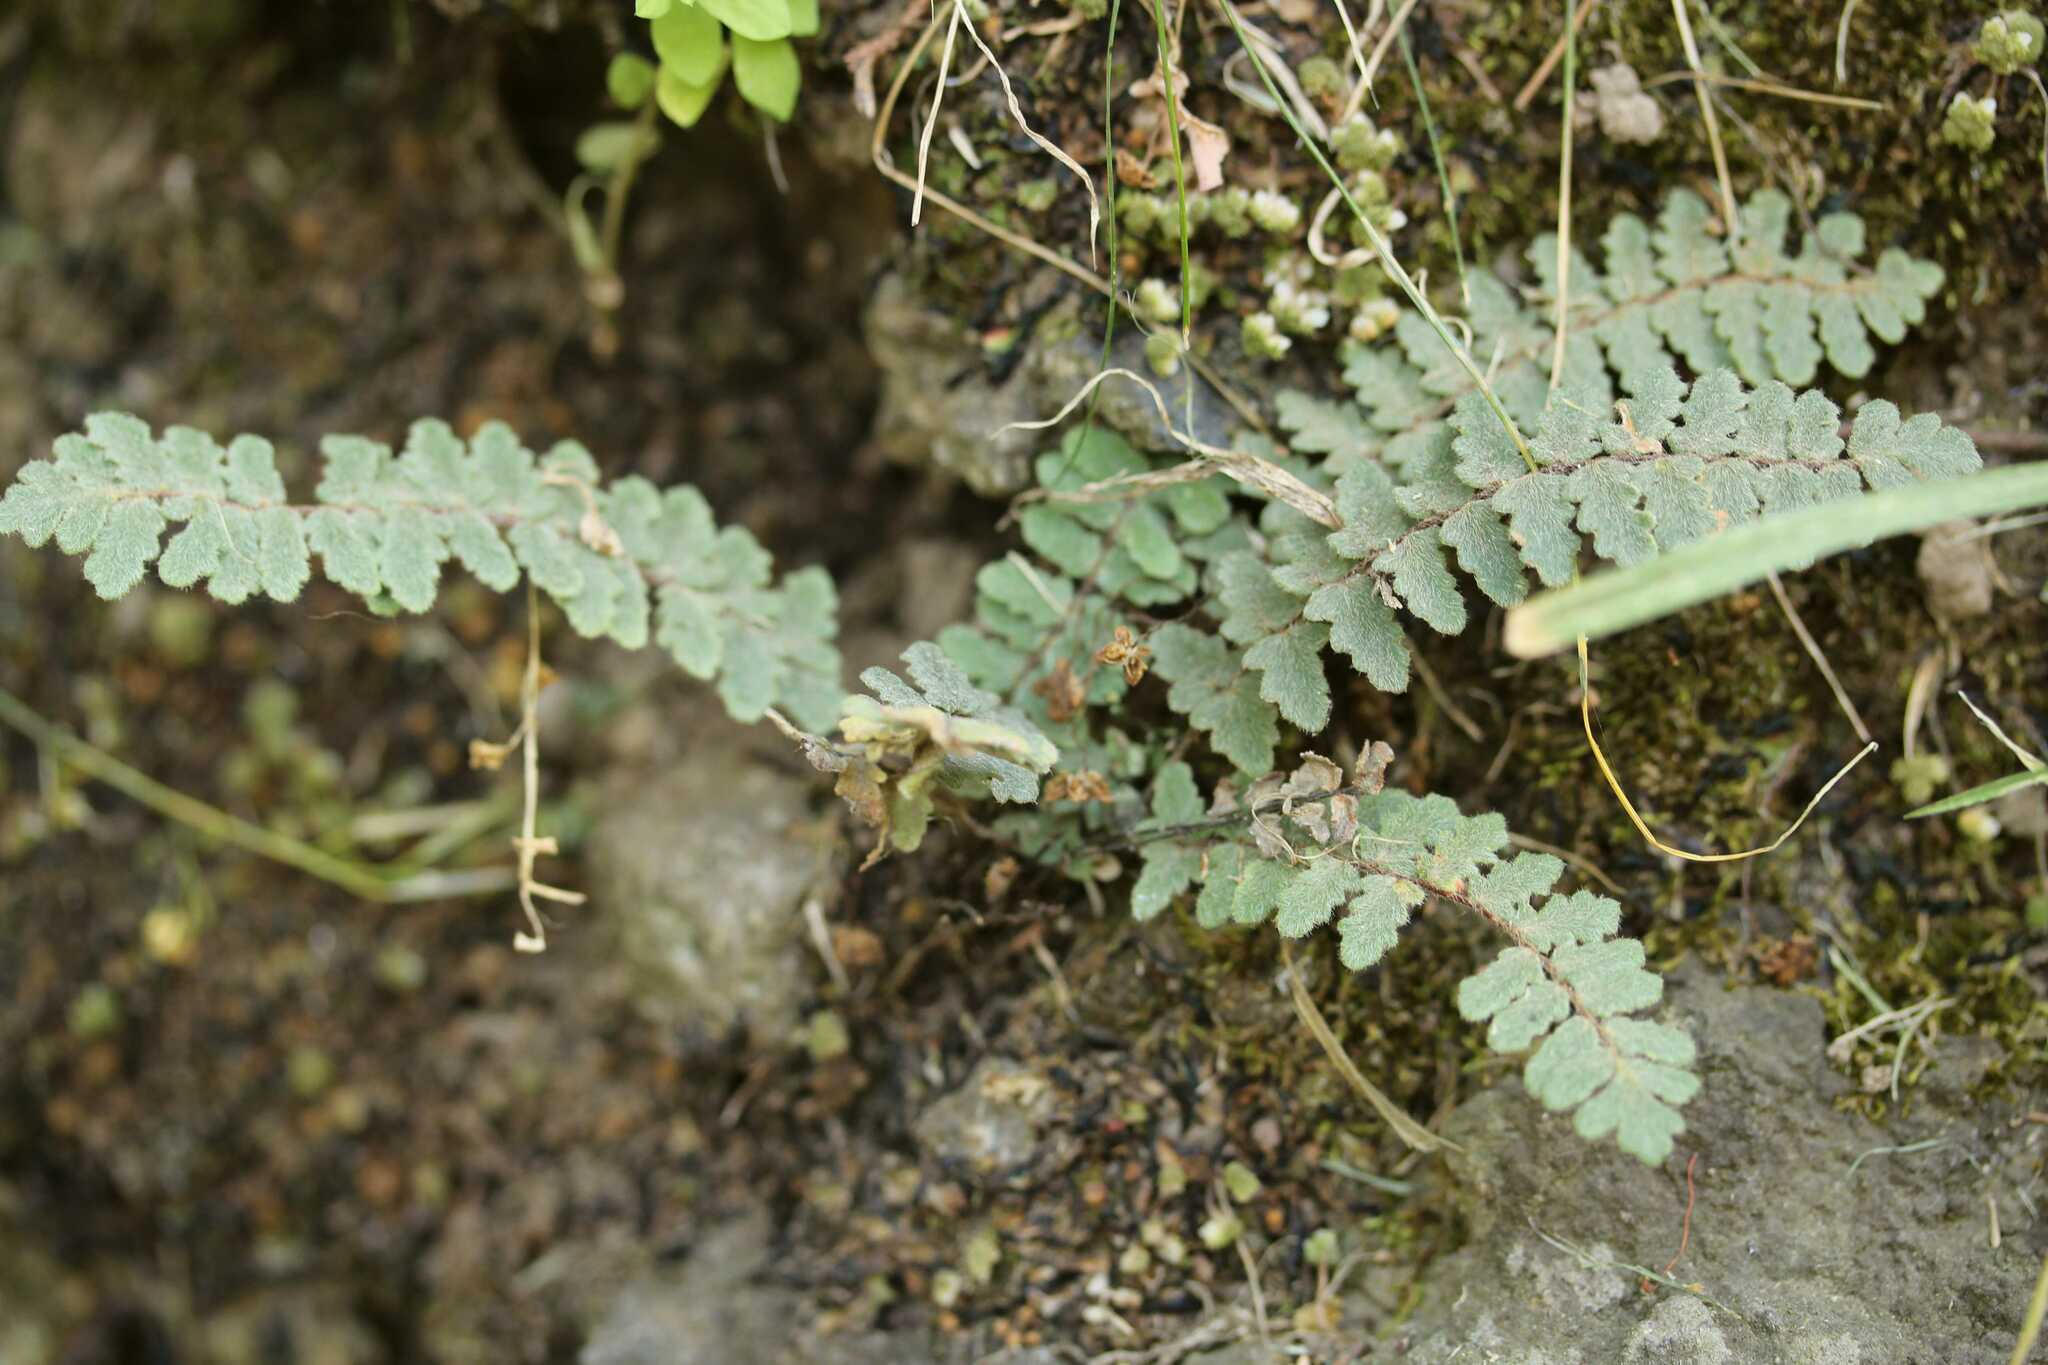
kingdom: Plantae
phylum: Tracheophyta
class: Polypodiopsida
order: Polypodiales
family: Pteridaceae
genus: Myriopteris
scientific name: Myriopteris aurea
